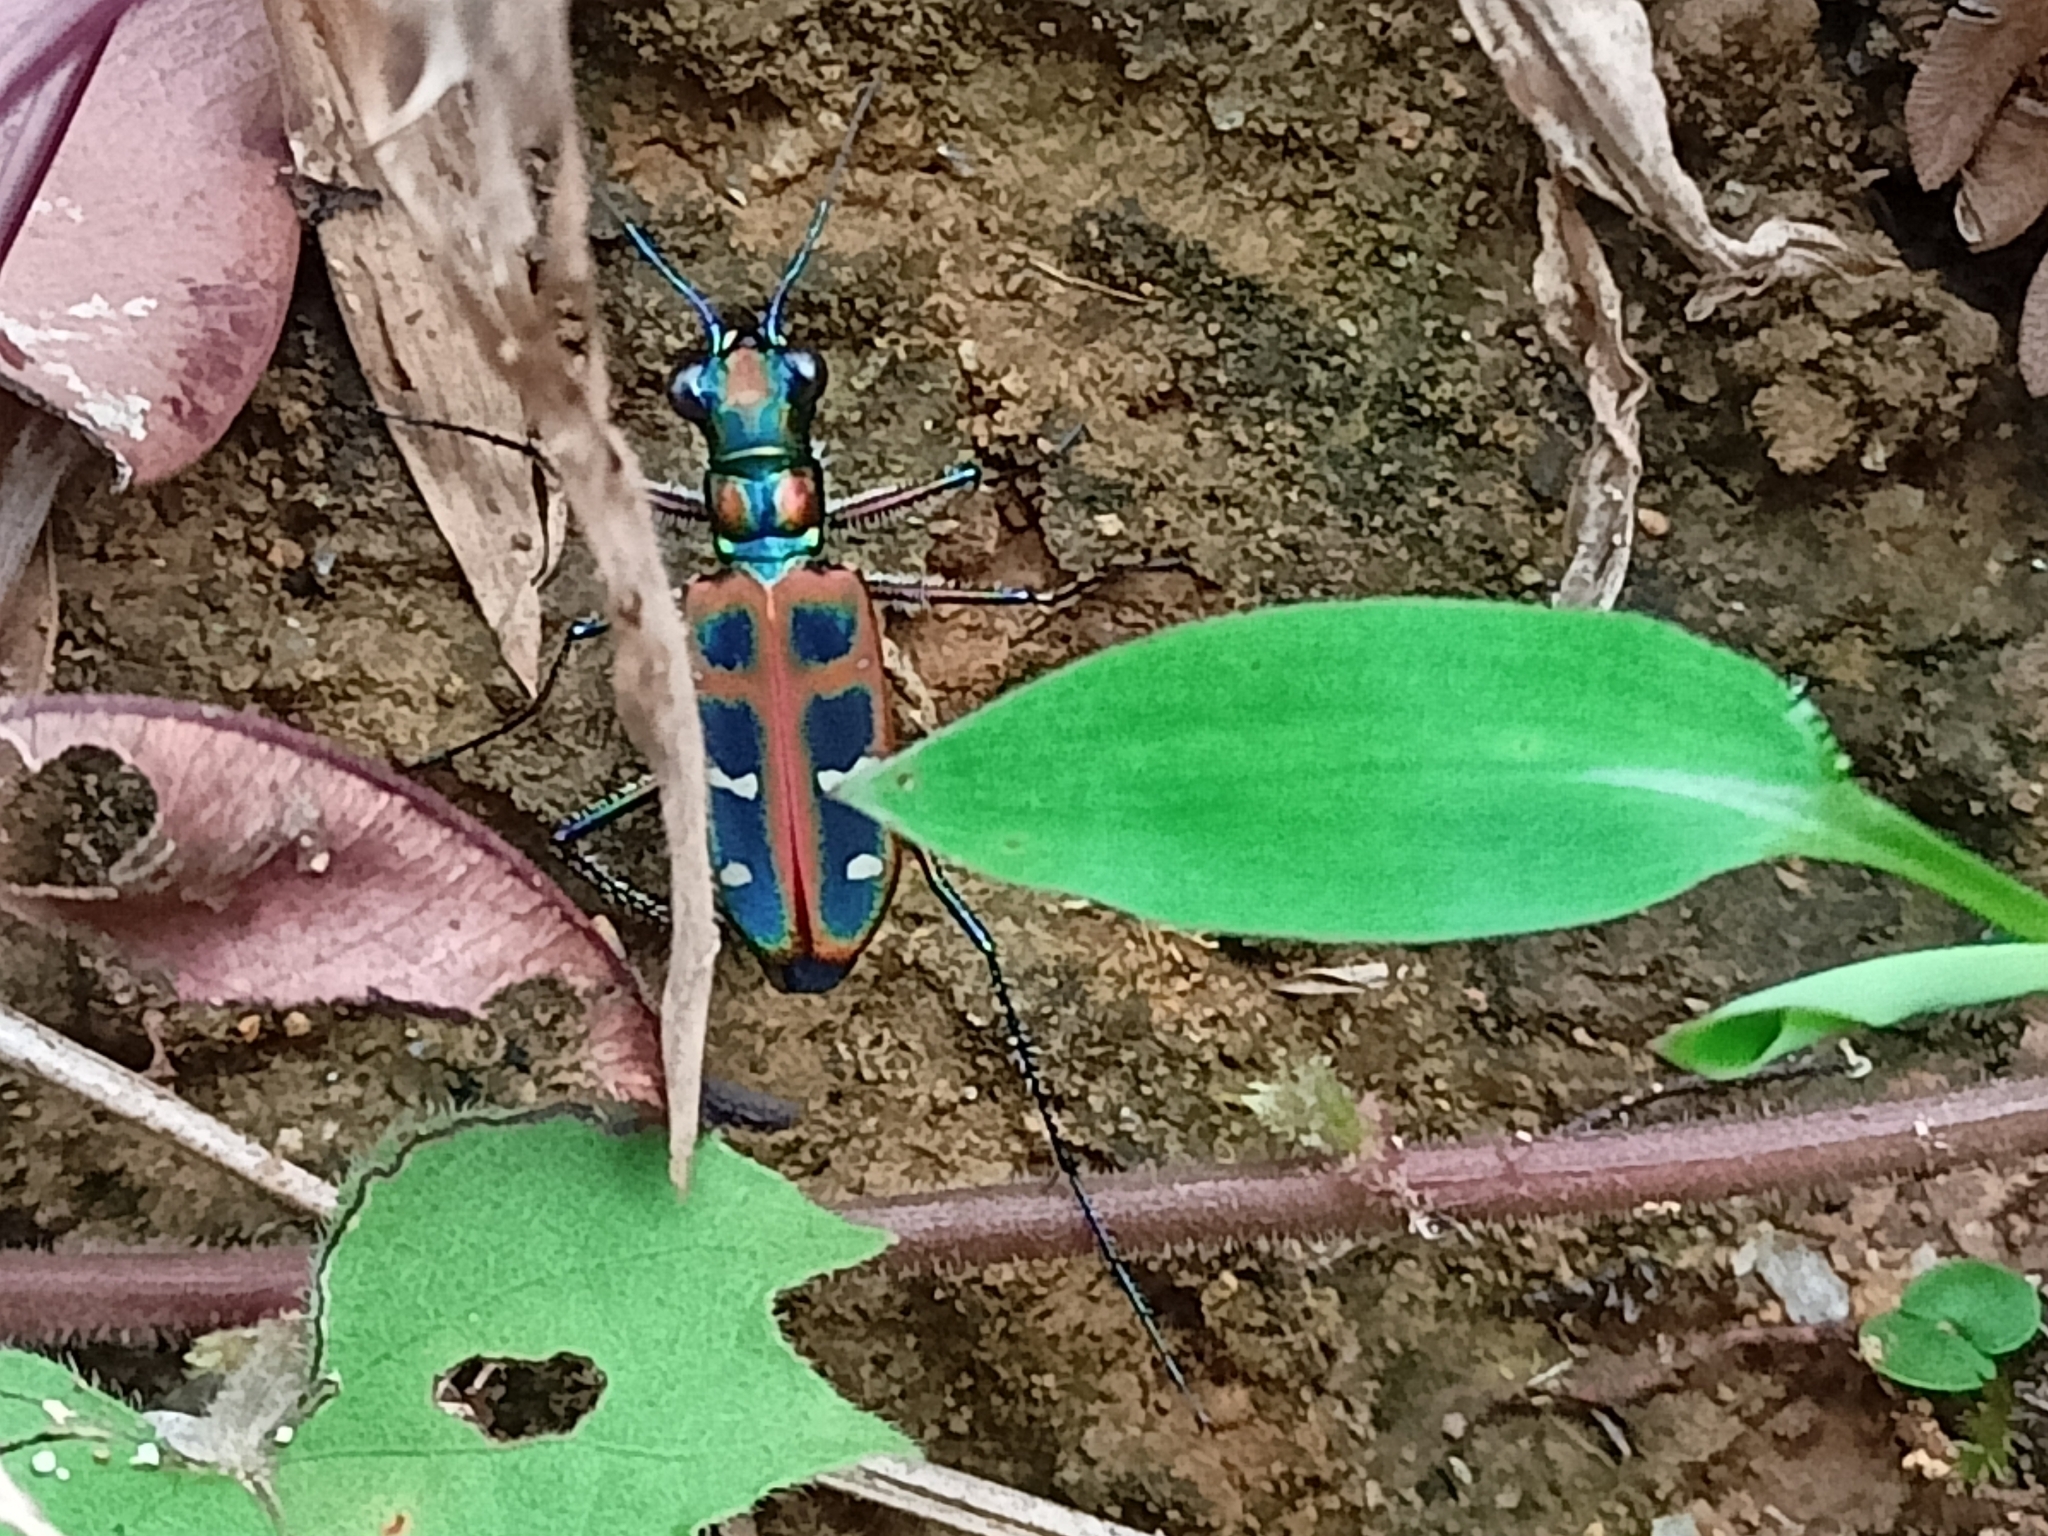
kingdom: Animalia
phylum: Arthropoda
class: Insecta
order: Coleoptera
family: Carabidae
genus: Cicindela
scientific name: Cicindela barmanica
